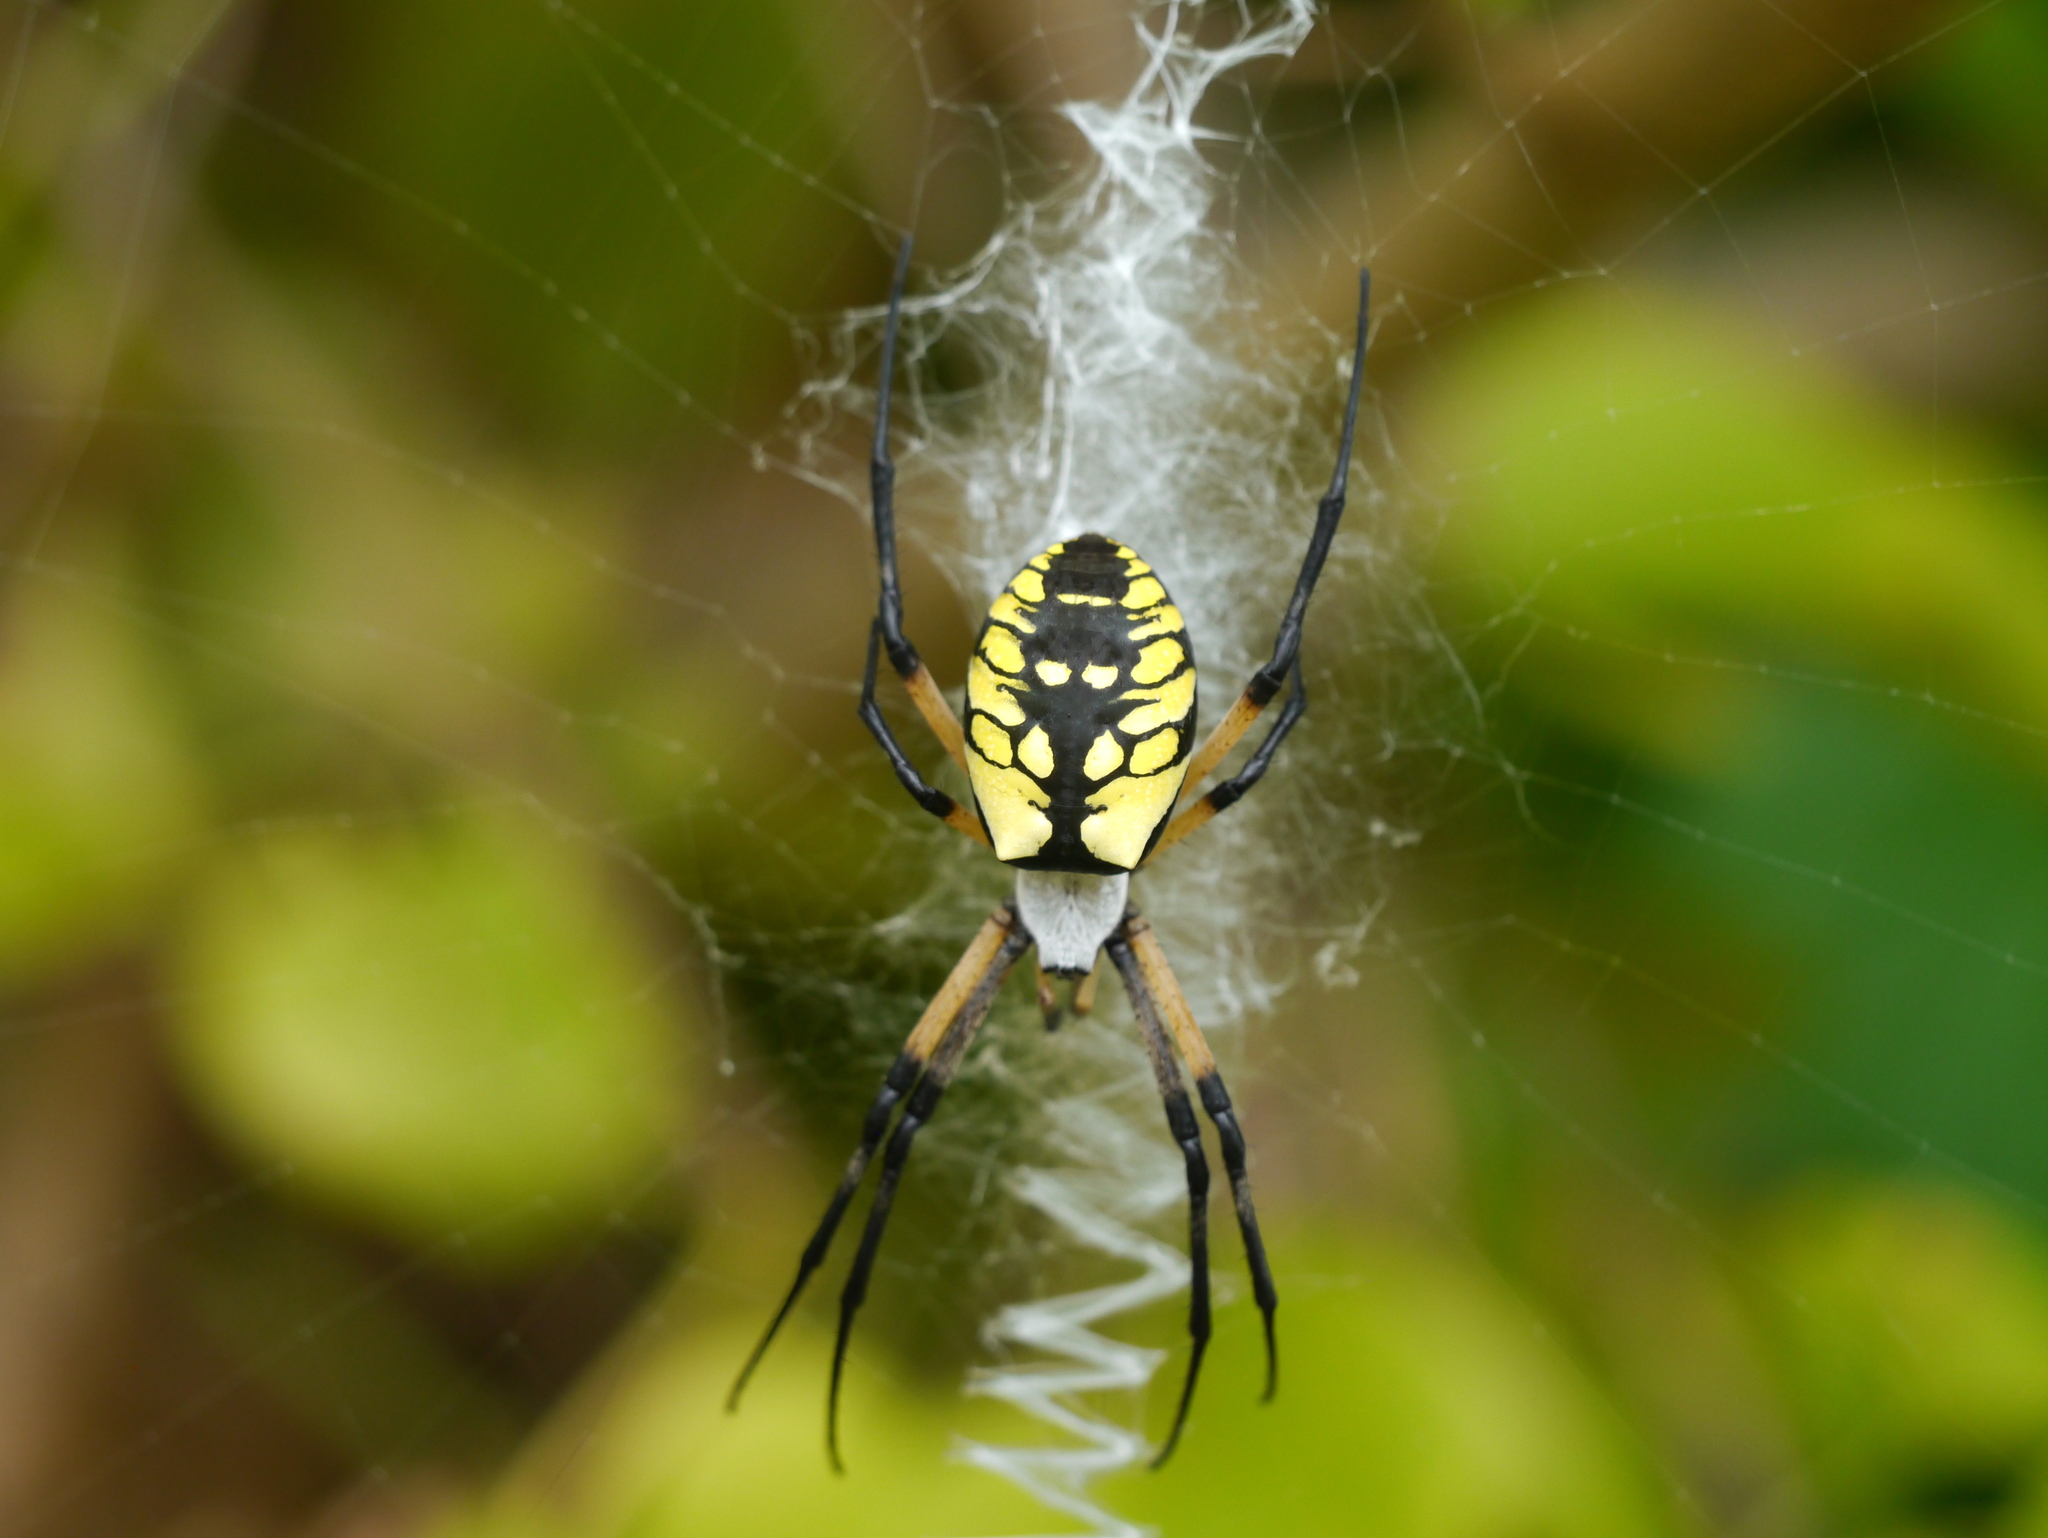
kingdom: Animalia
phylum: Arthropoda
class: Arachnida
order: Araneae
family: Araneidae
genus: Argiope
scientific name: Argiope aurantia
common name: Orb weavers
